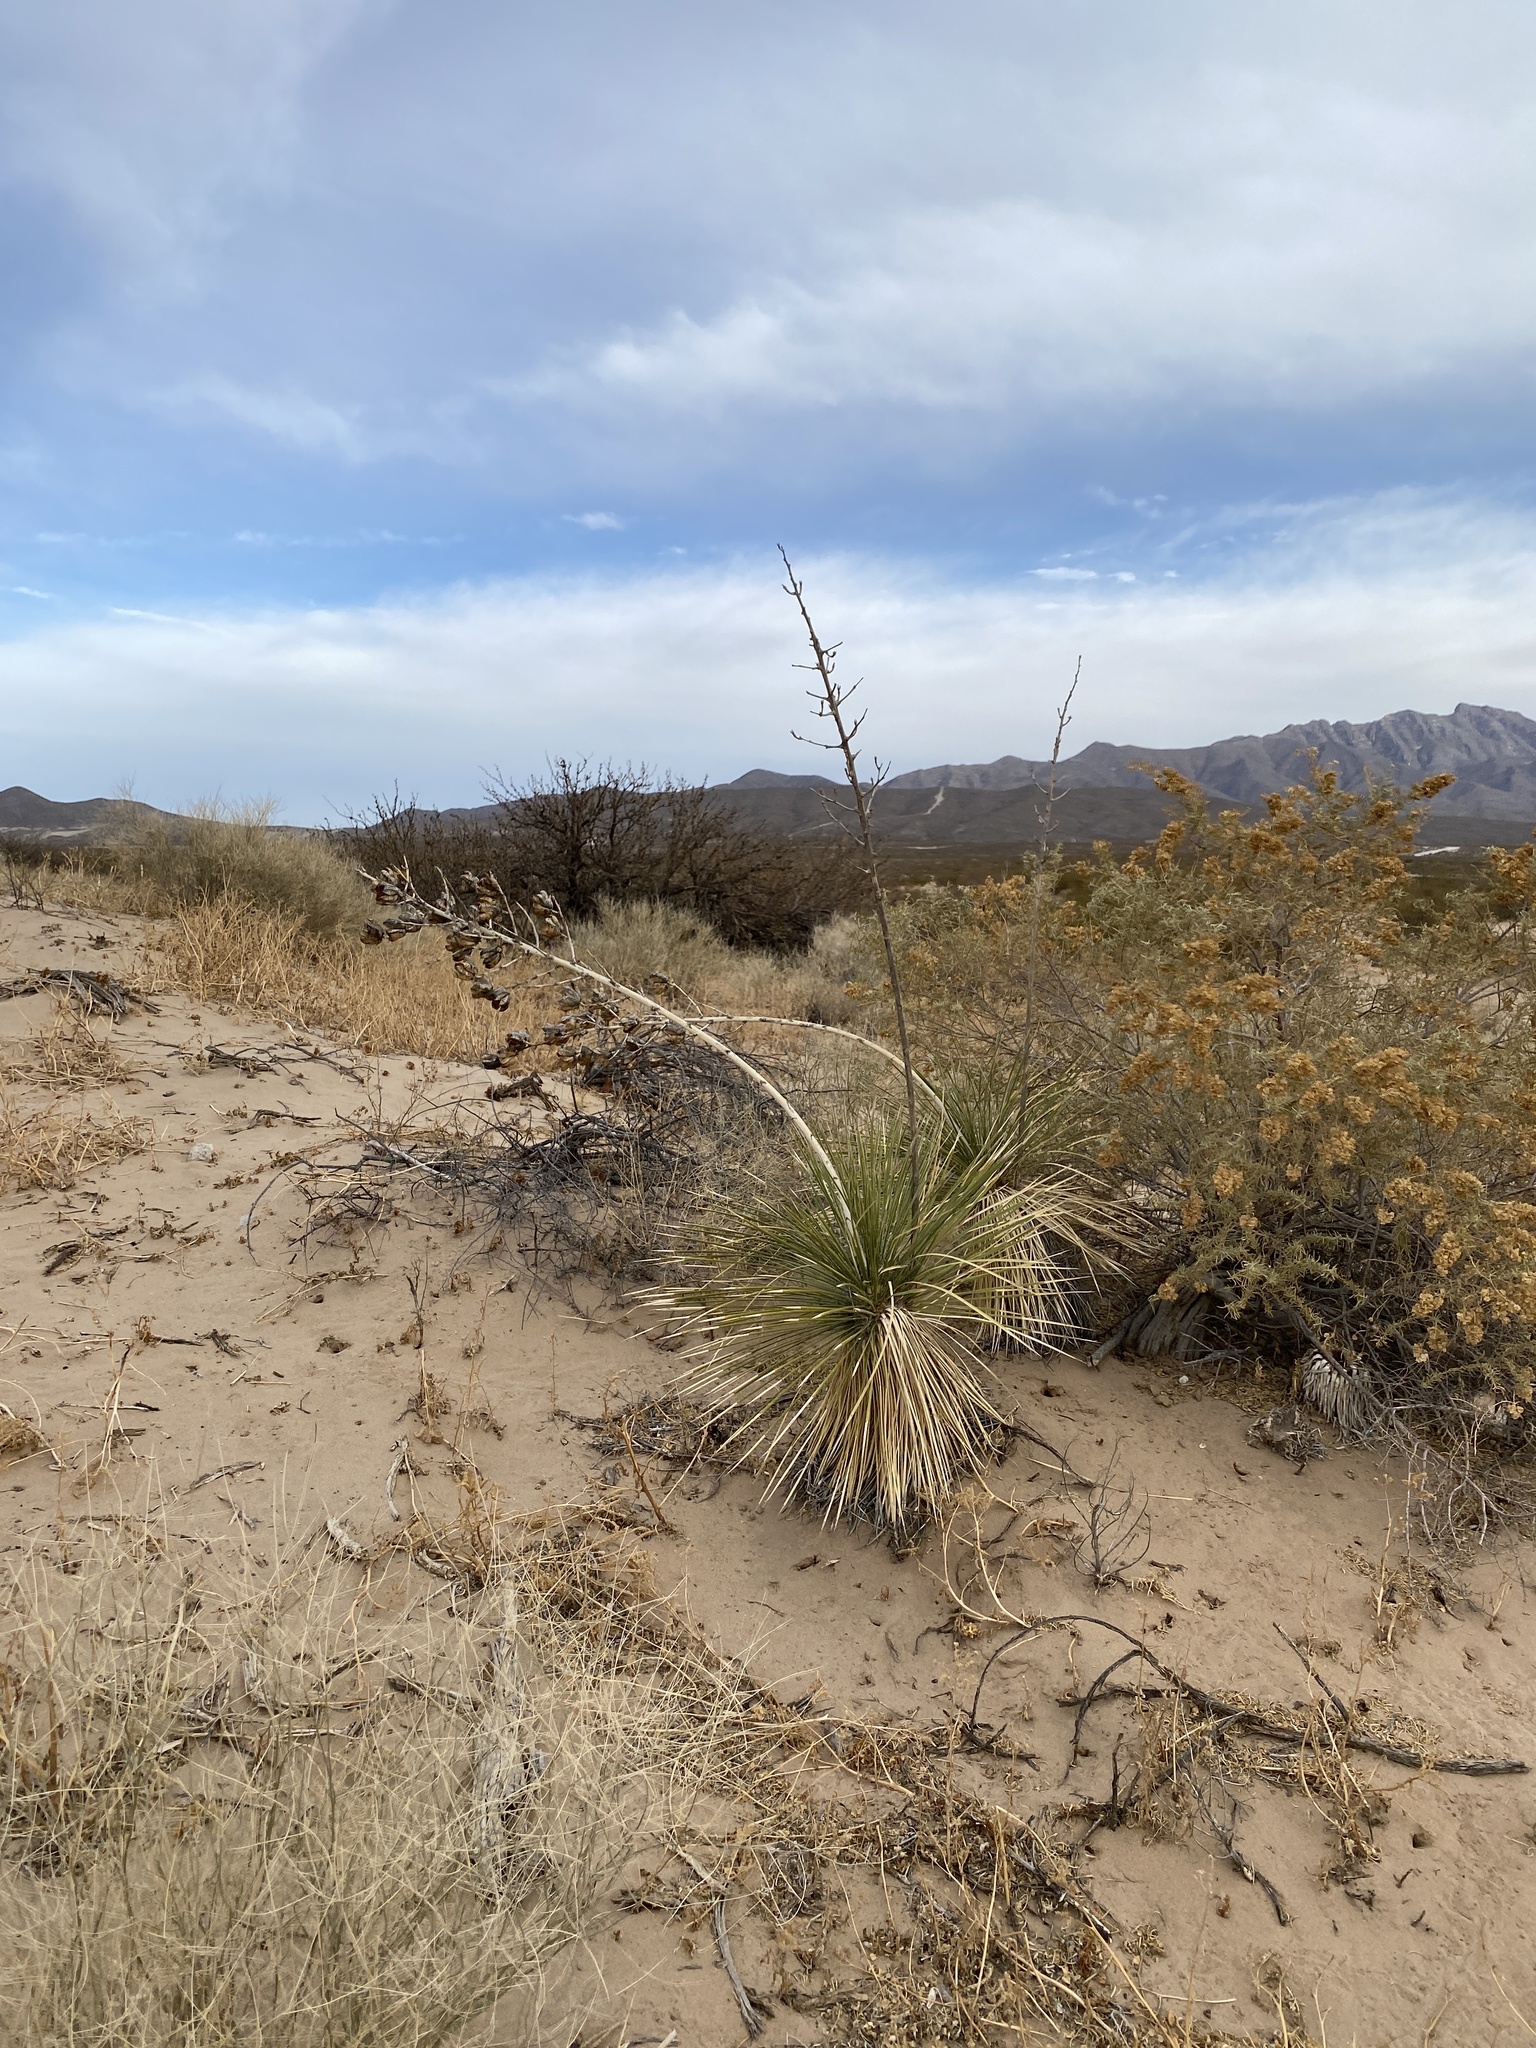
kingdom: Plantae
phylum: Tracheophyta
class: Liliopsida
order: Asparagales
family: Asparagaceae
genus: Yucca
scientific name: Yucca elata
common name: Palmella
